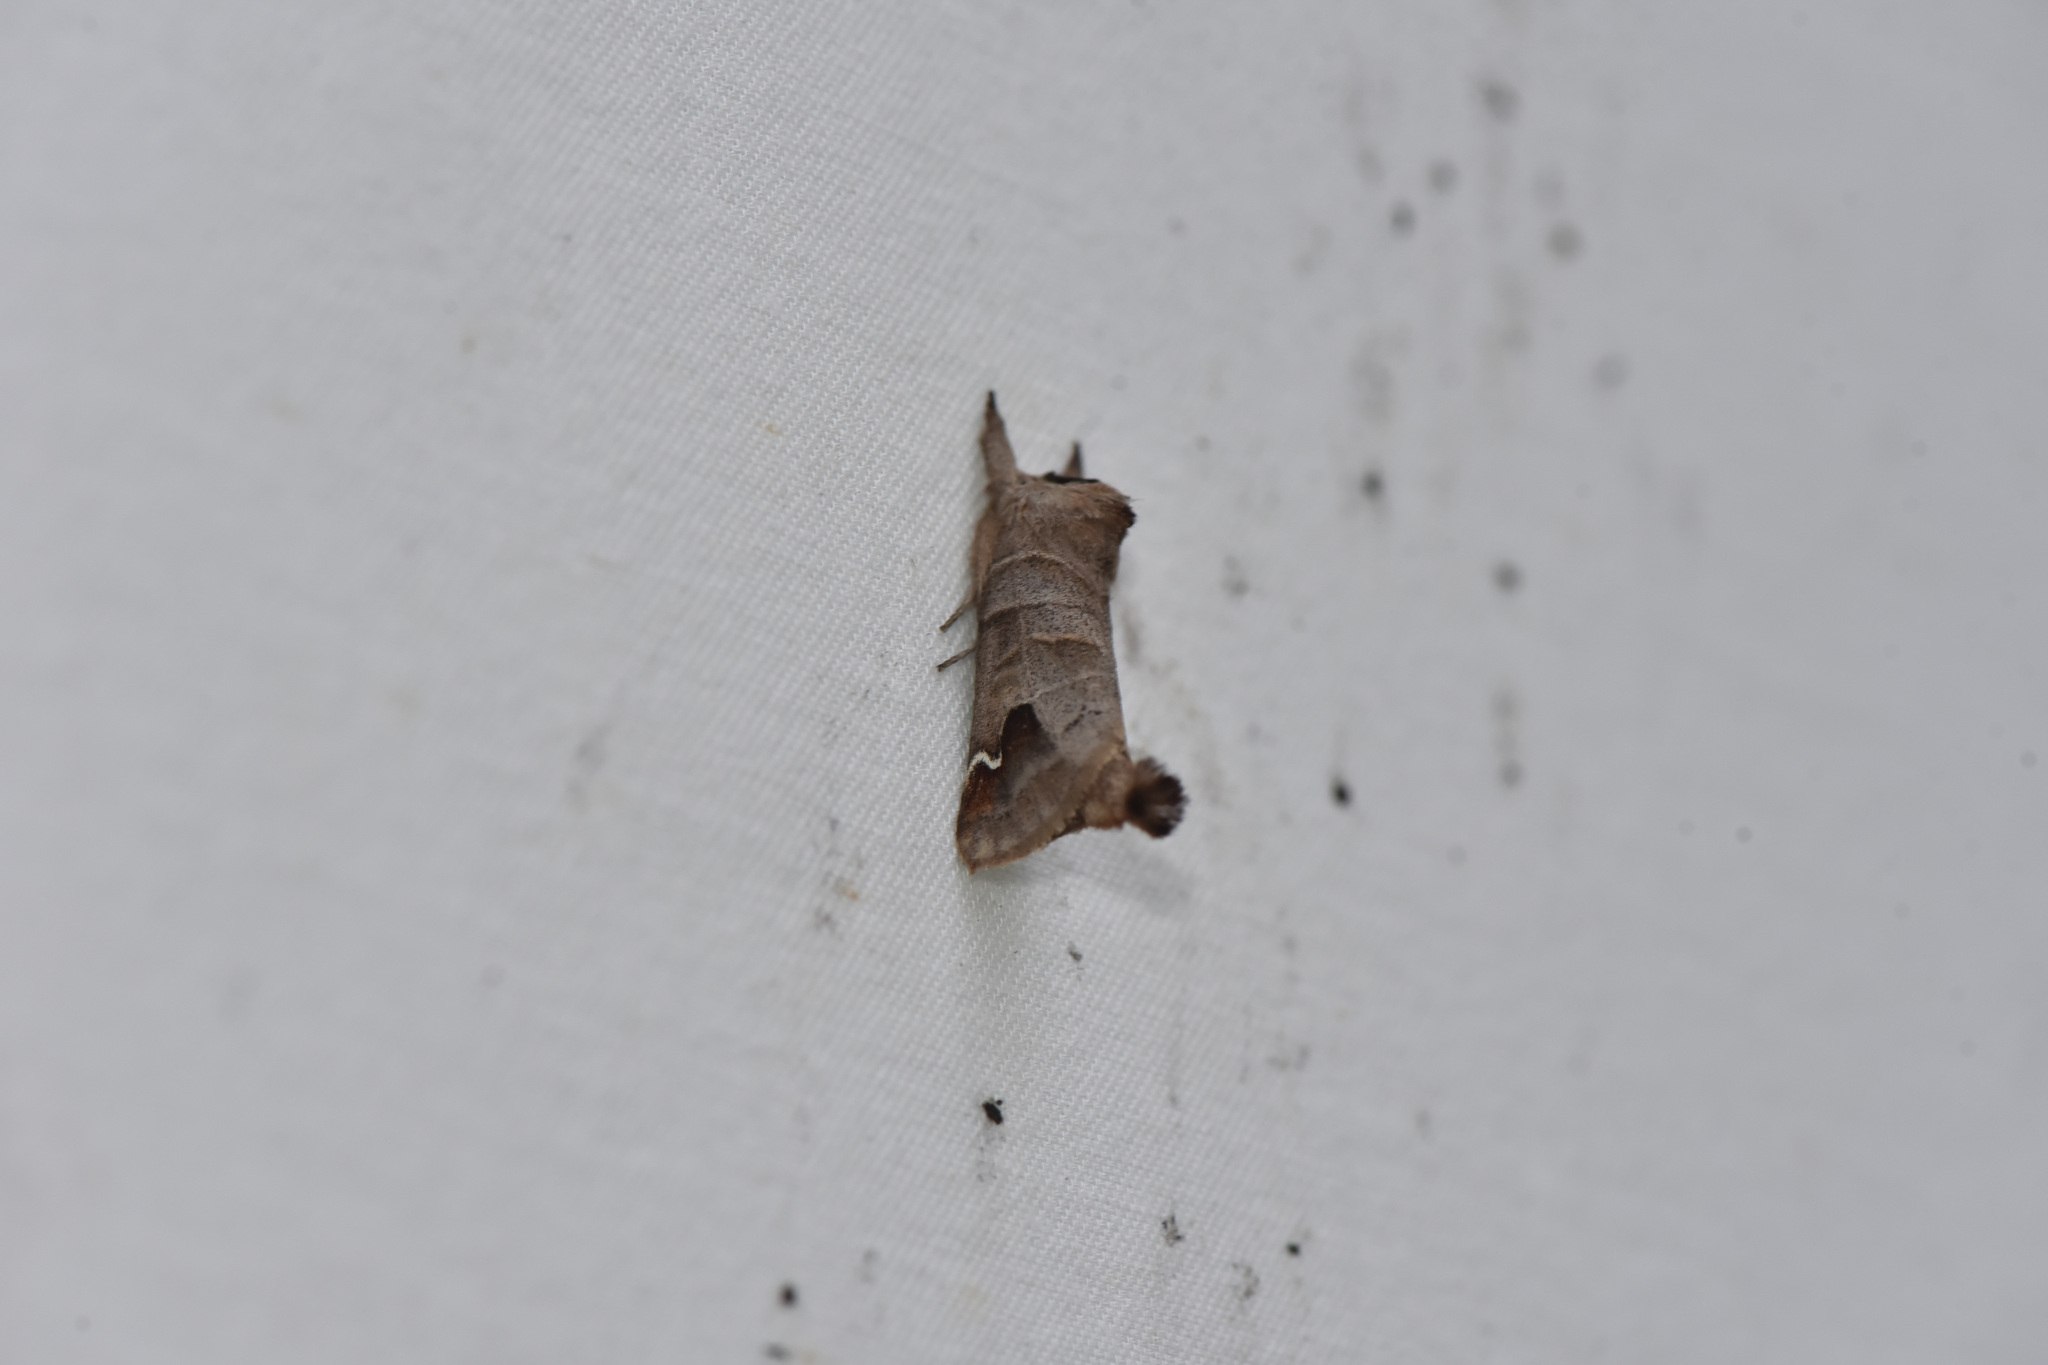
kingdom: Animalia
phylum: Arthropoda
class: Insecta
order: Lepidoptera
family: Notodontidae
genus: Clostera
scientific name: Clostera albosigma
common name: Sigmoid prominent
